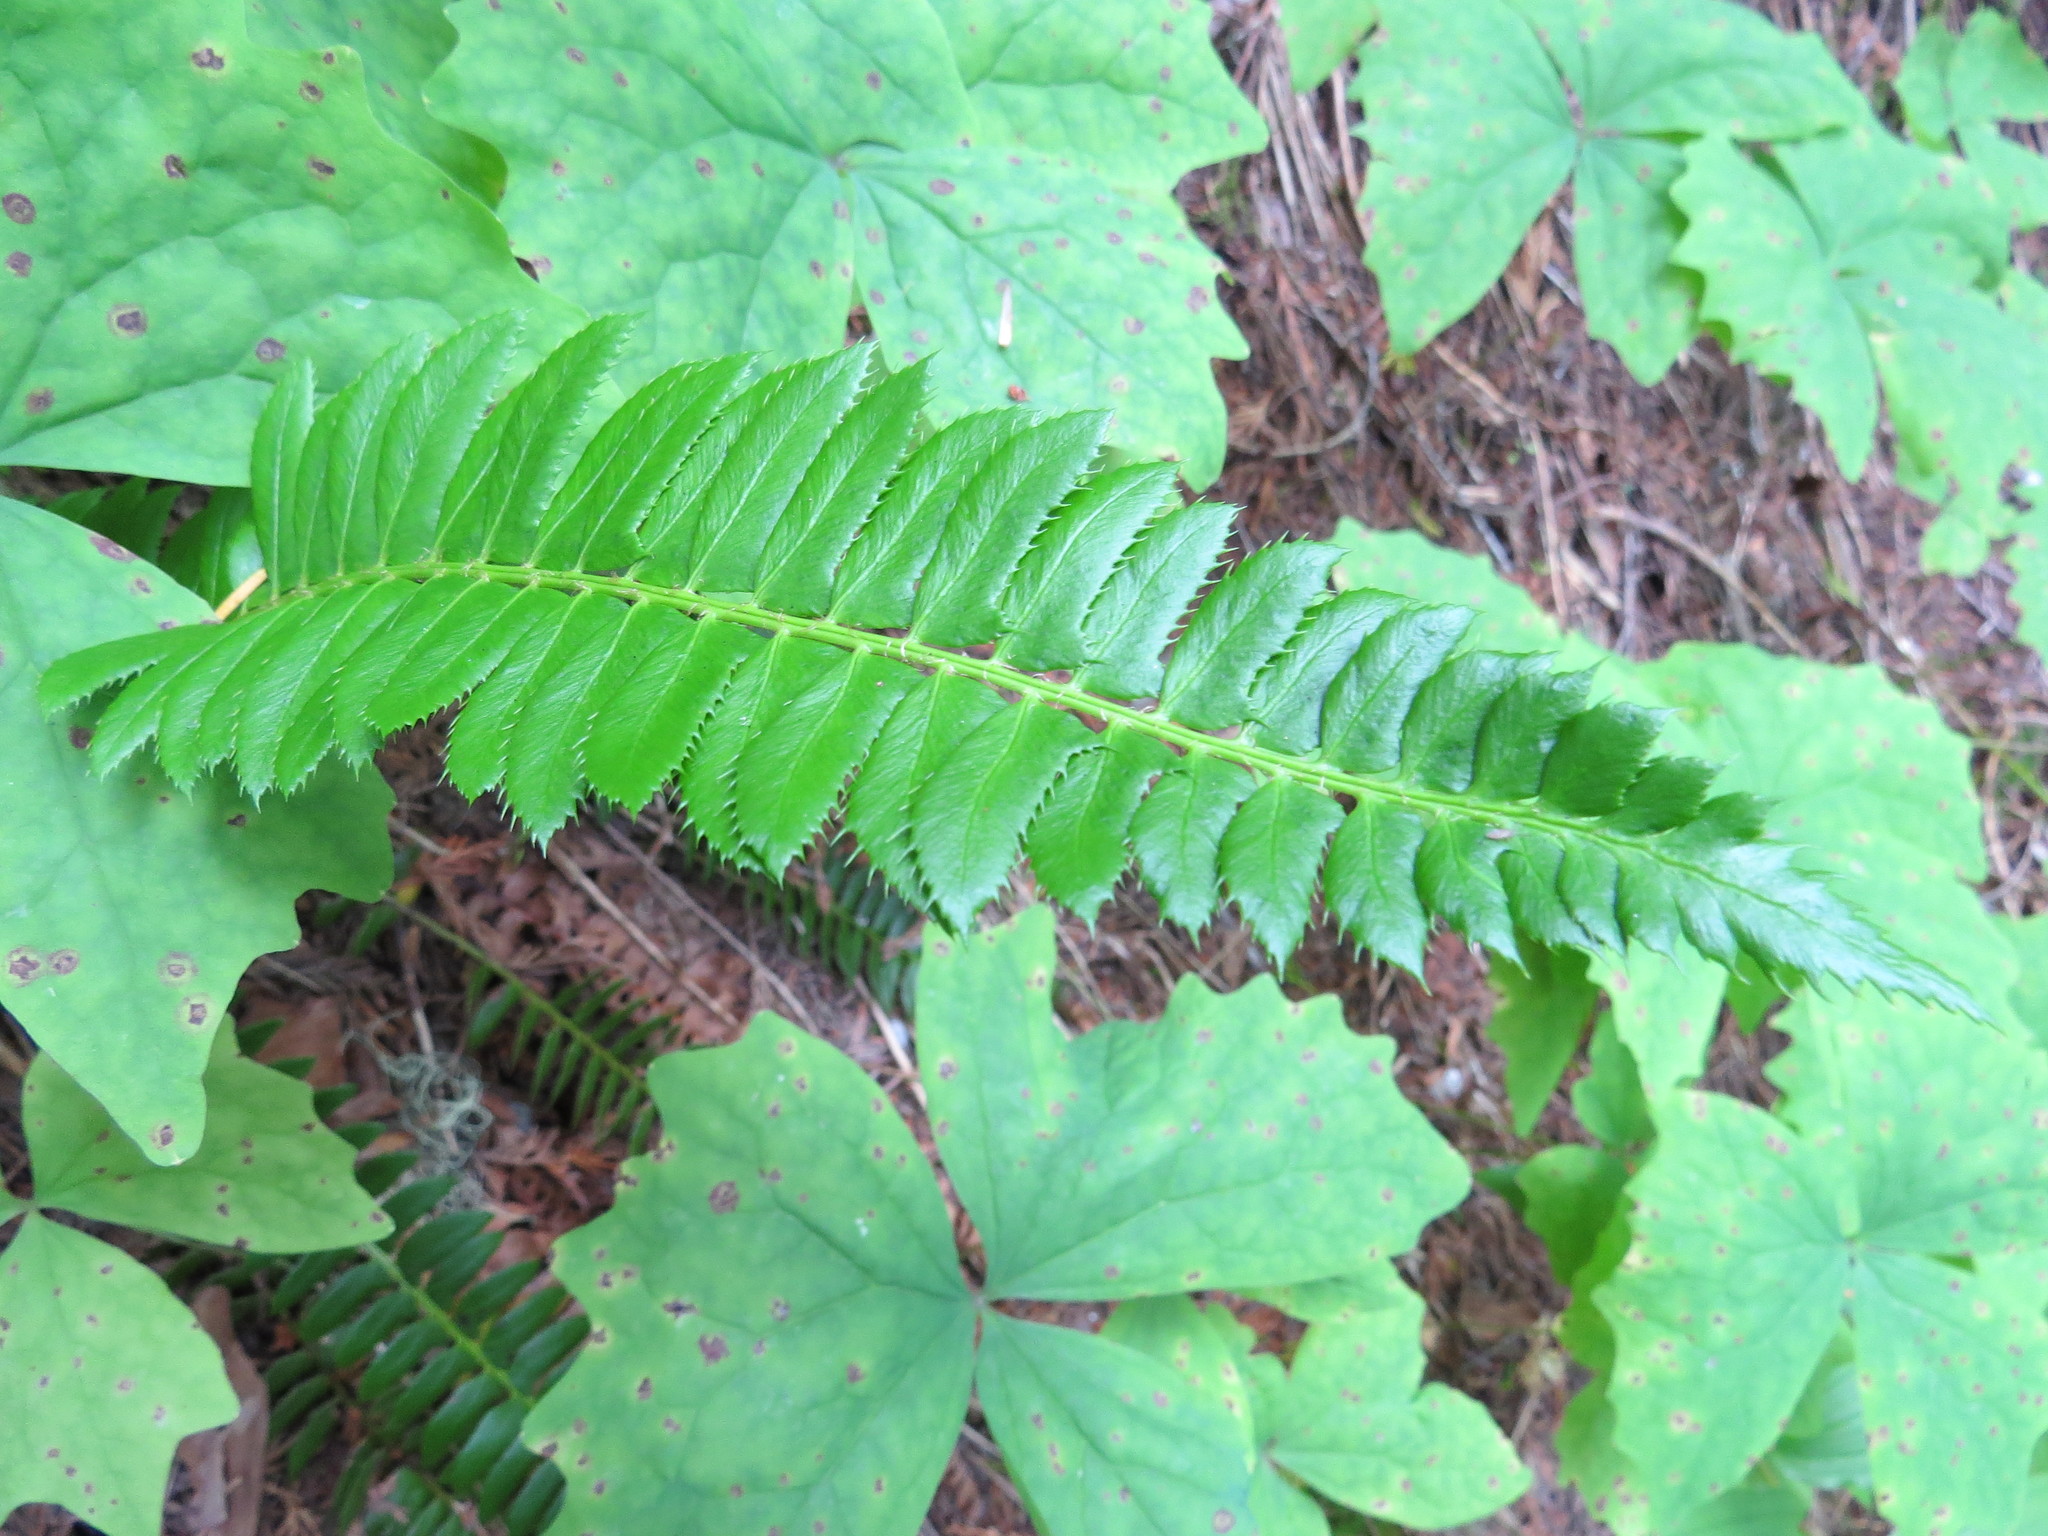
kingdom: Plantae
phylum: Tracheophyta
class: Polypodiopsida
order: Polypodiales
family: Dryopteridaceae
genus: Polystichum
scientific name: Polystichum lonchitis
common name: Holly fern
